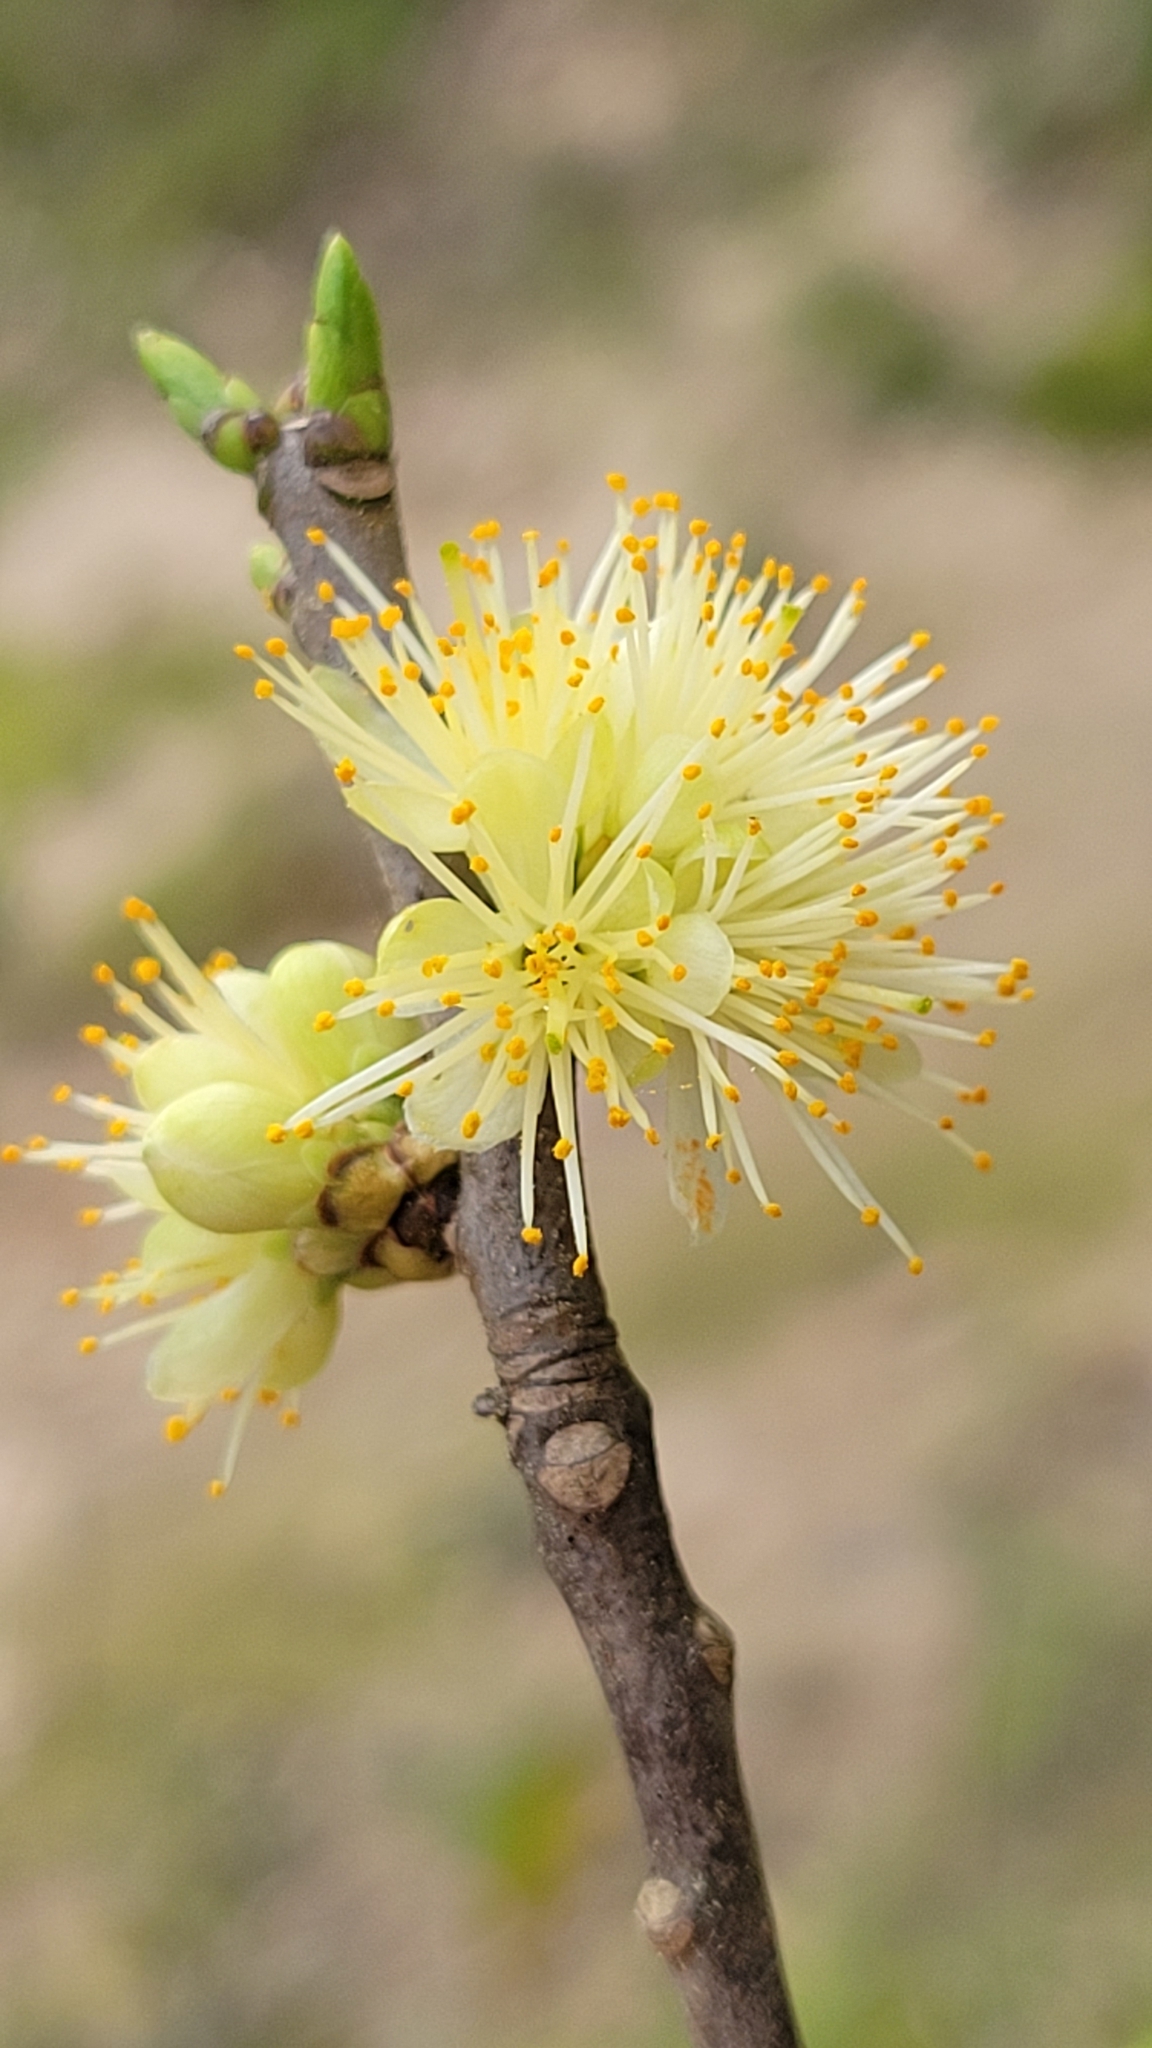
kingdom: Plantae
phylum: Tracheophyta
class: Magnoliopsida
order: Ericales
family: Symplocaceae
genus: Symplocos
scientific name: Symplocos tinctoria
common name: Horse-sugar
